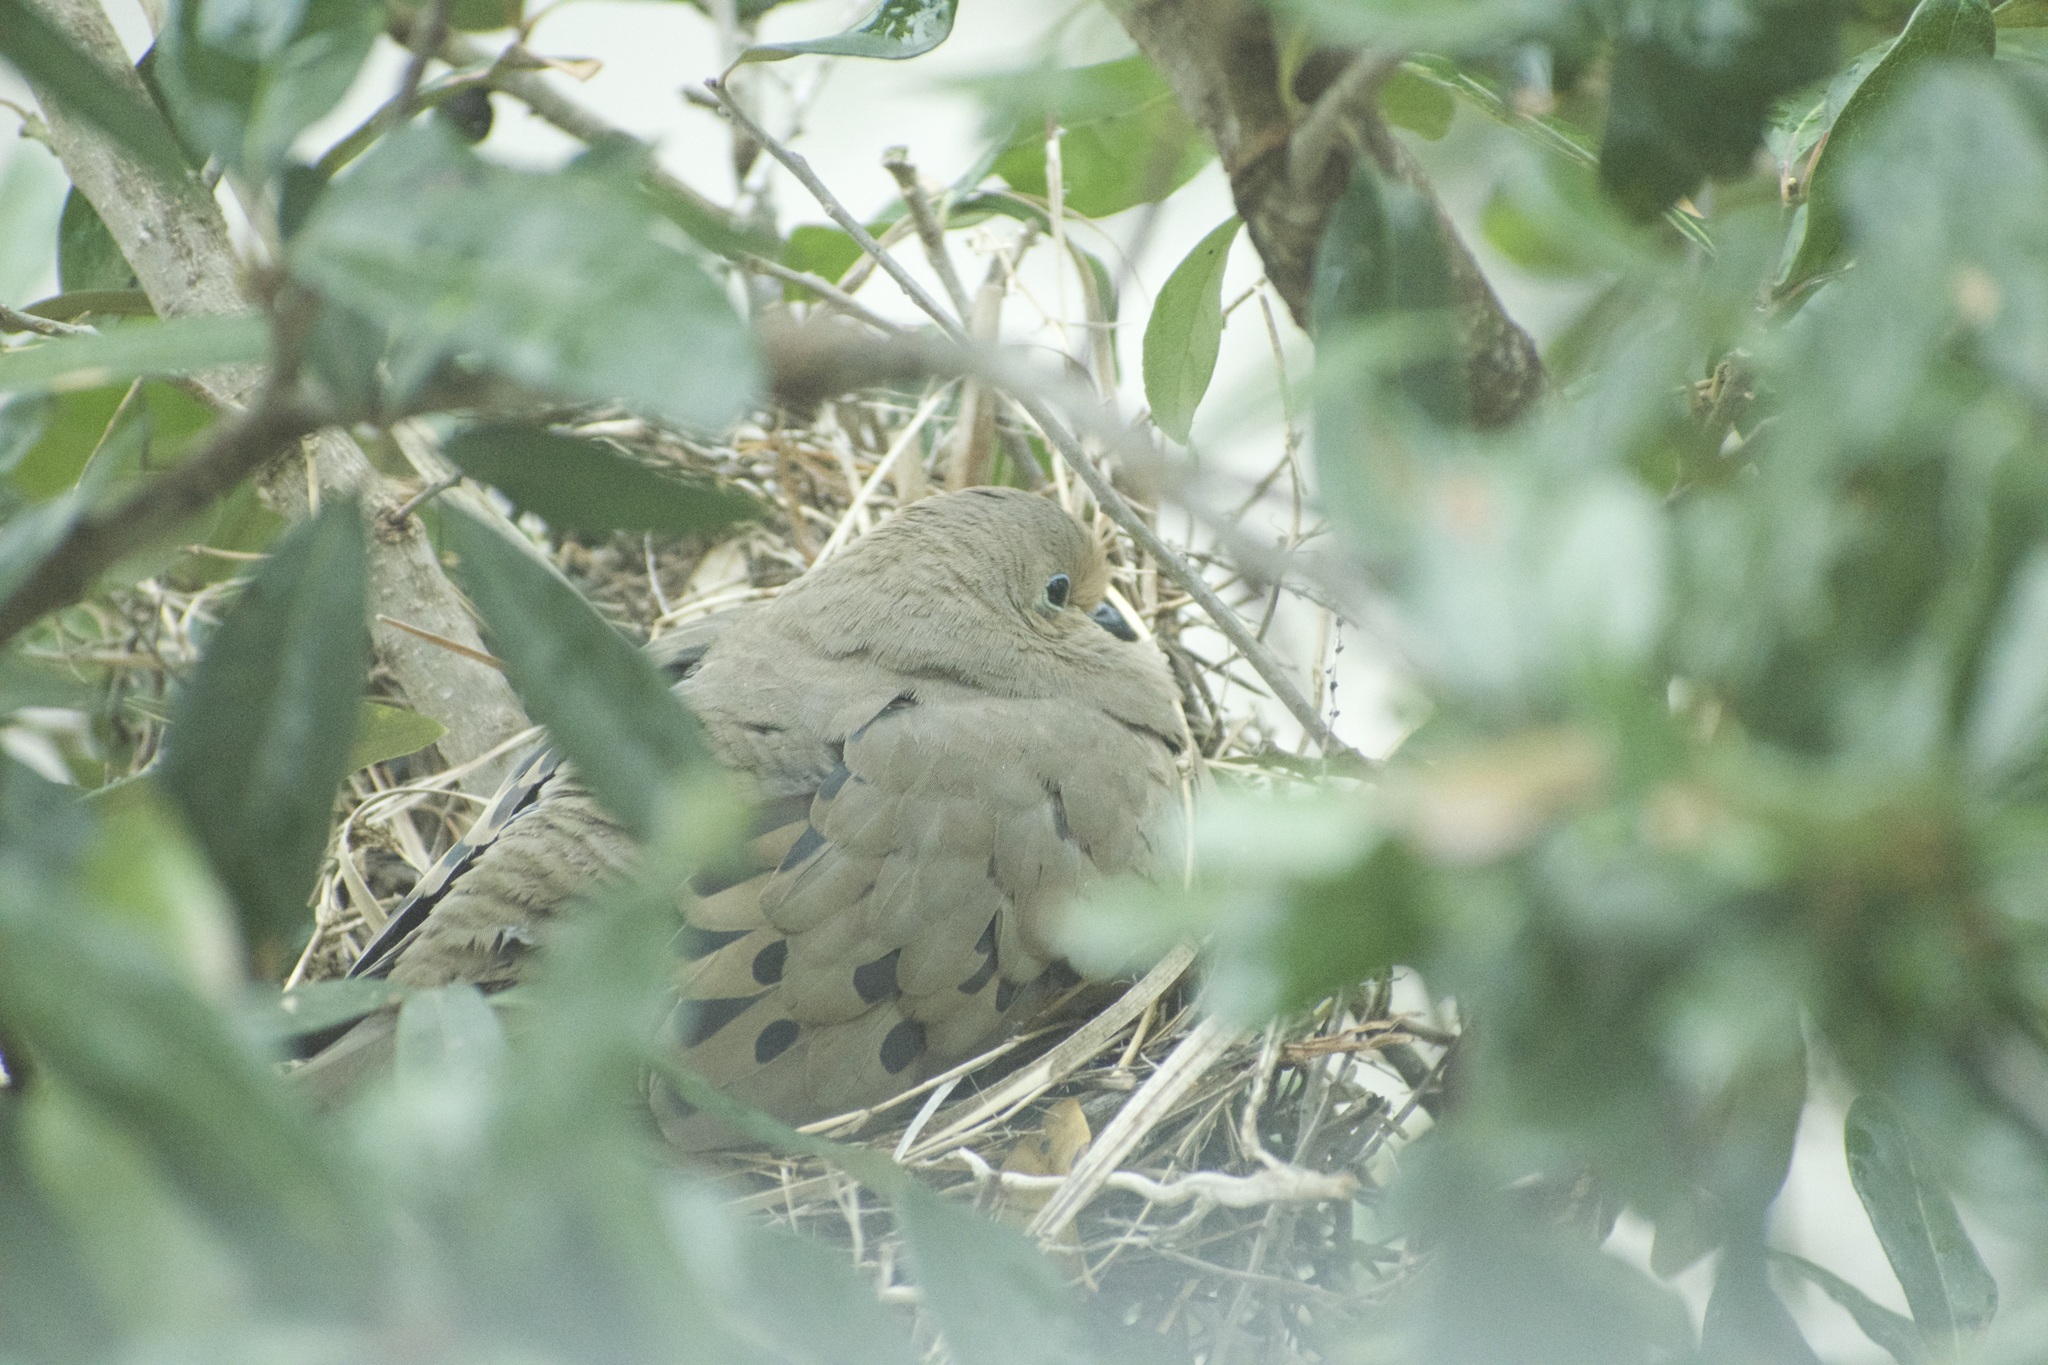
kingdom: Animalia
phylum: Chordata
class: Aves
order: Columbiformes
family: Columbidae
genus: Zenaida
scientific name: Zenaida macroura
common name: Mourning dove
